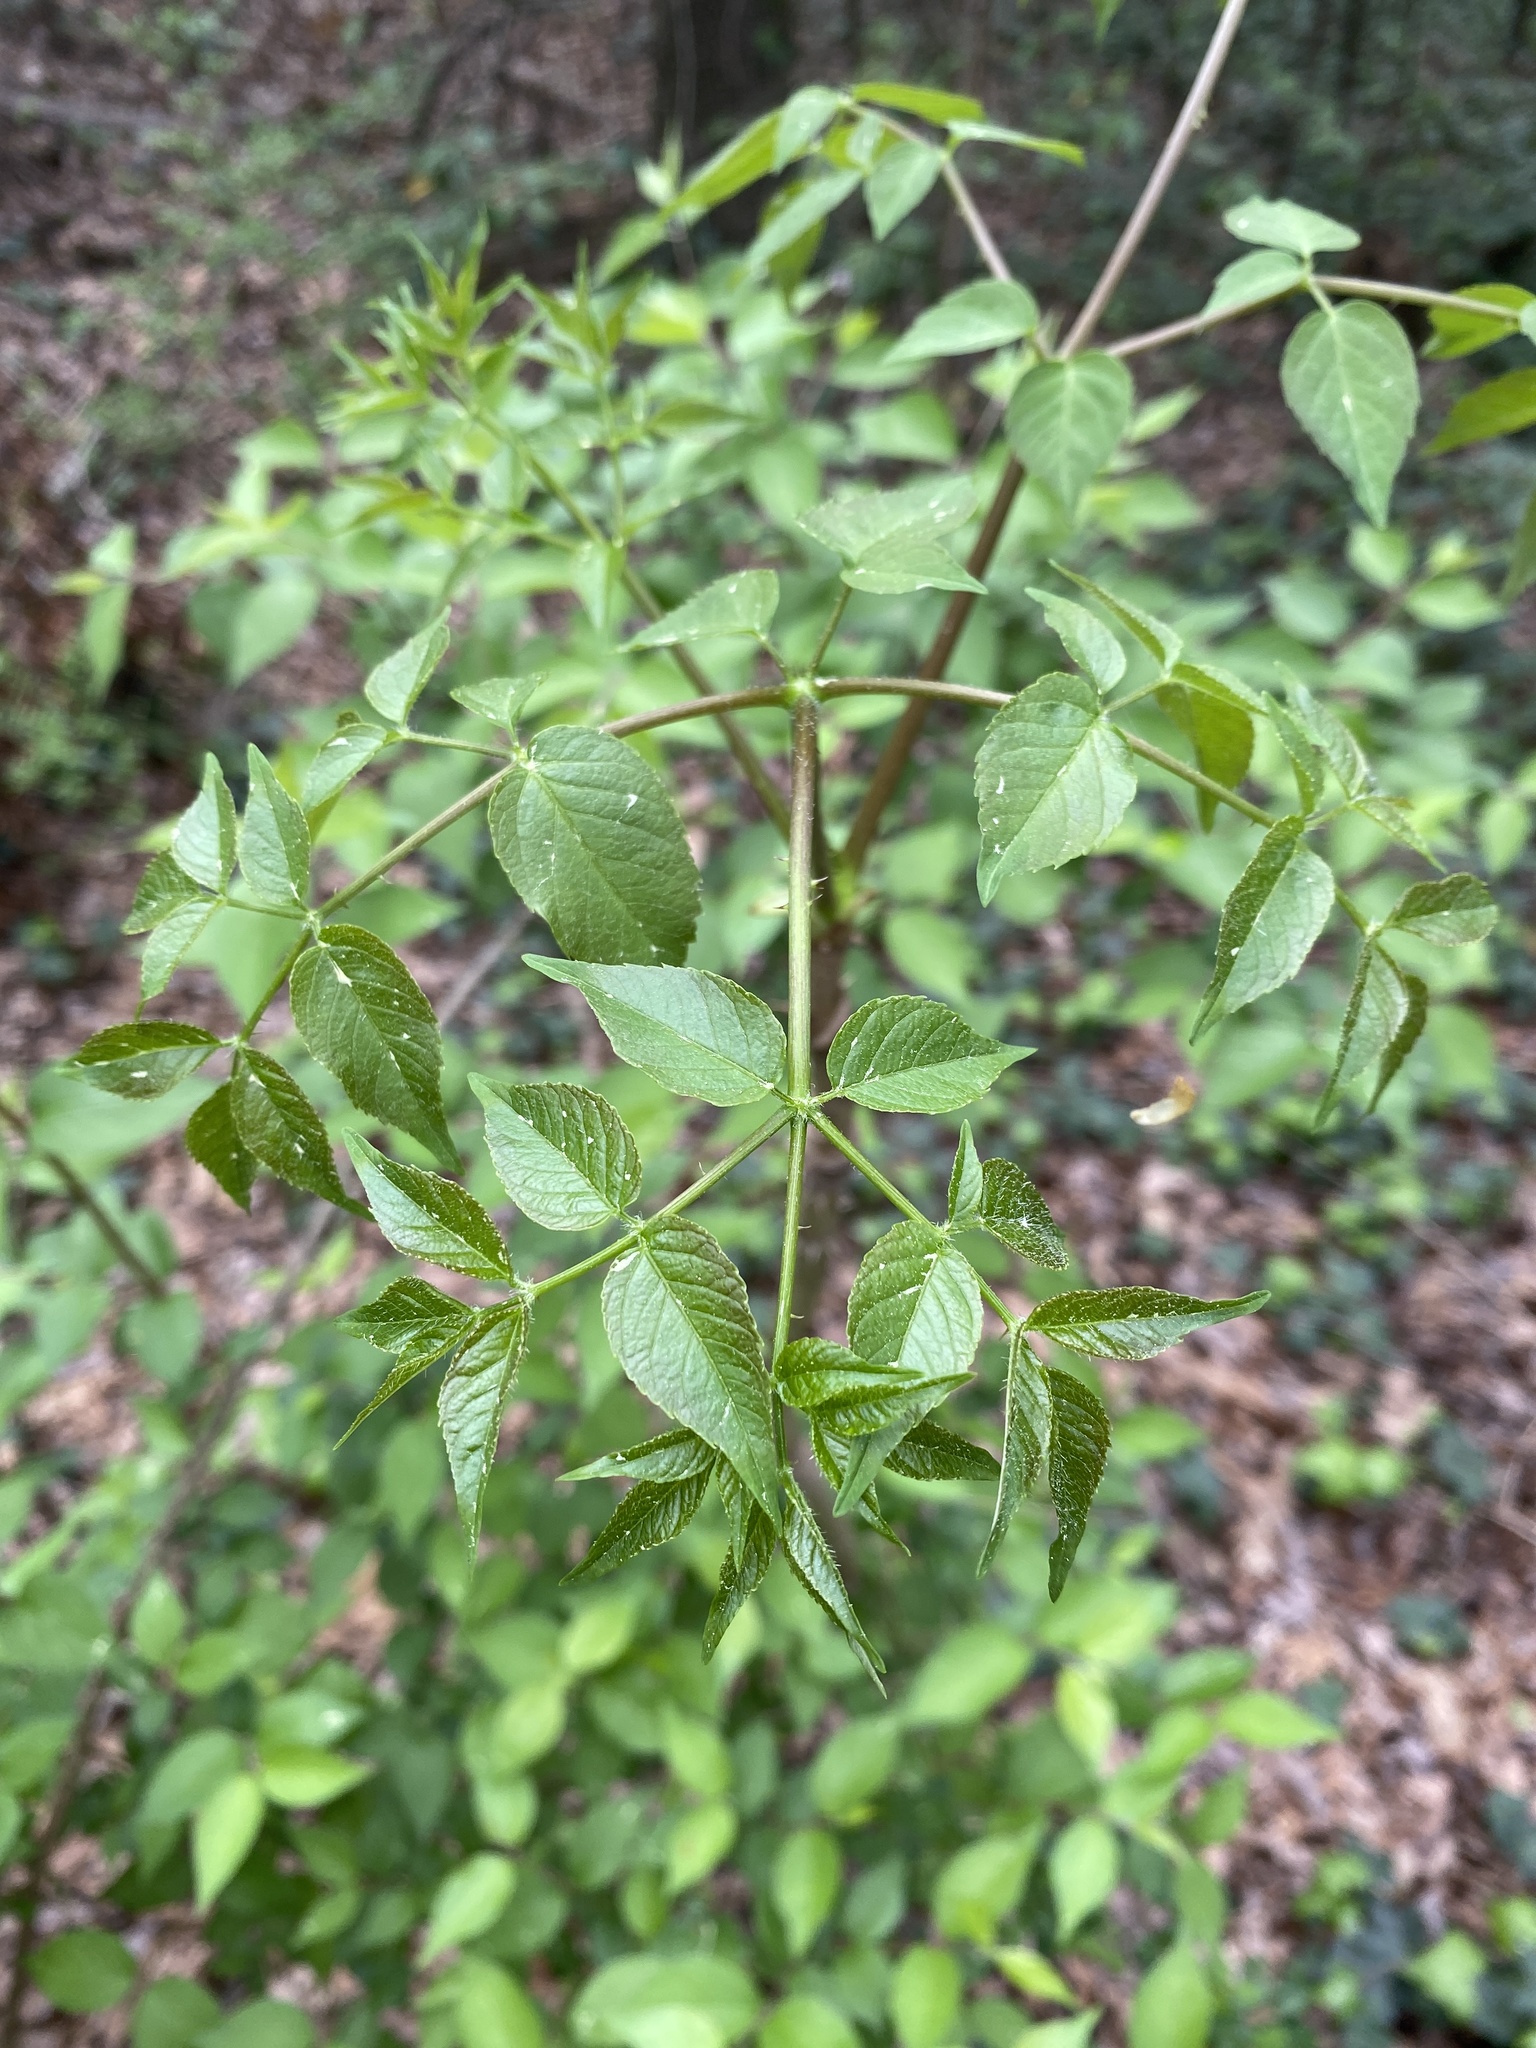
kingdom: Plantae
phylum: Tracheophyta
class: Magnoliopsida
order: Apiales
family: Araliaceae
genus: Aralia
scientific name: Aralia spinosa
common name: Hercules'-club
